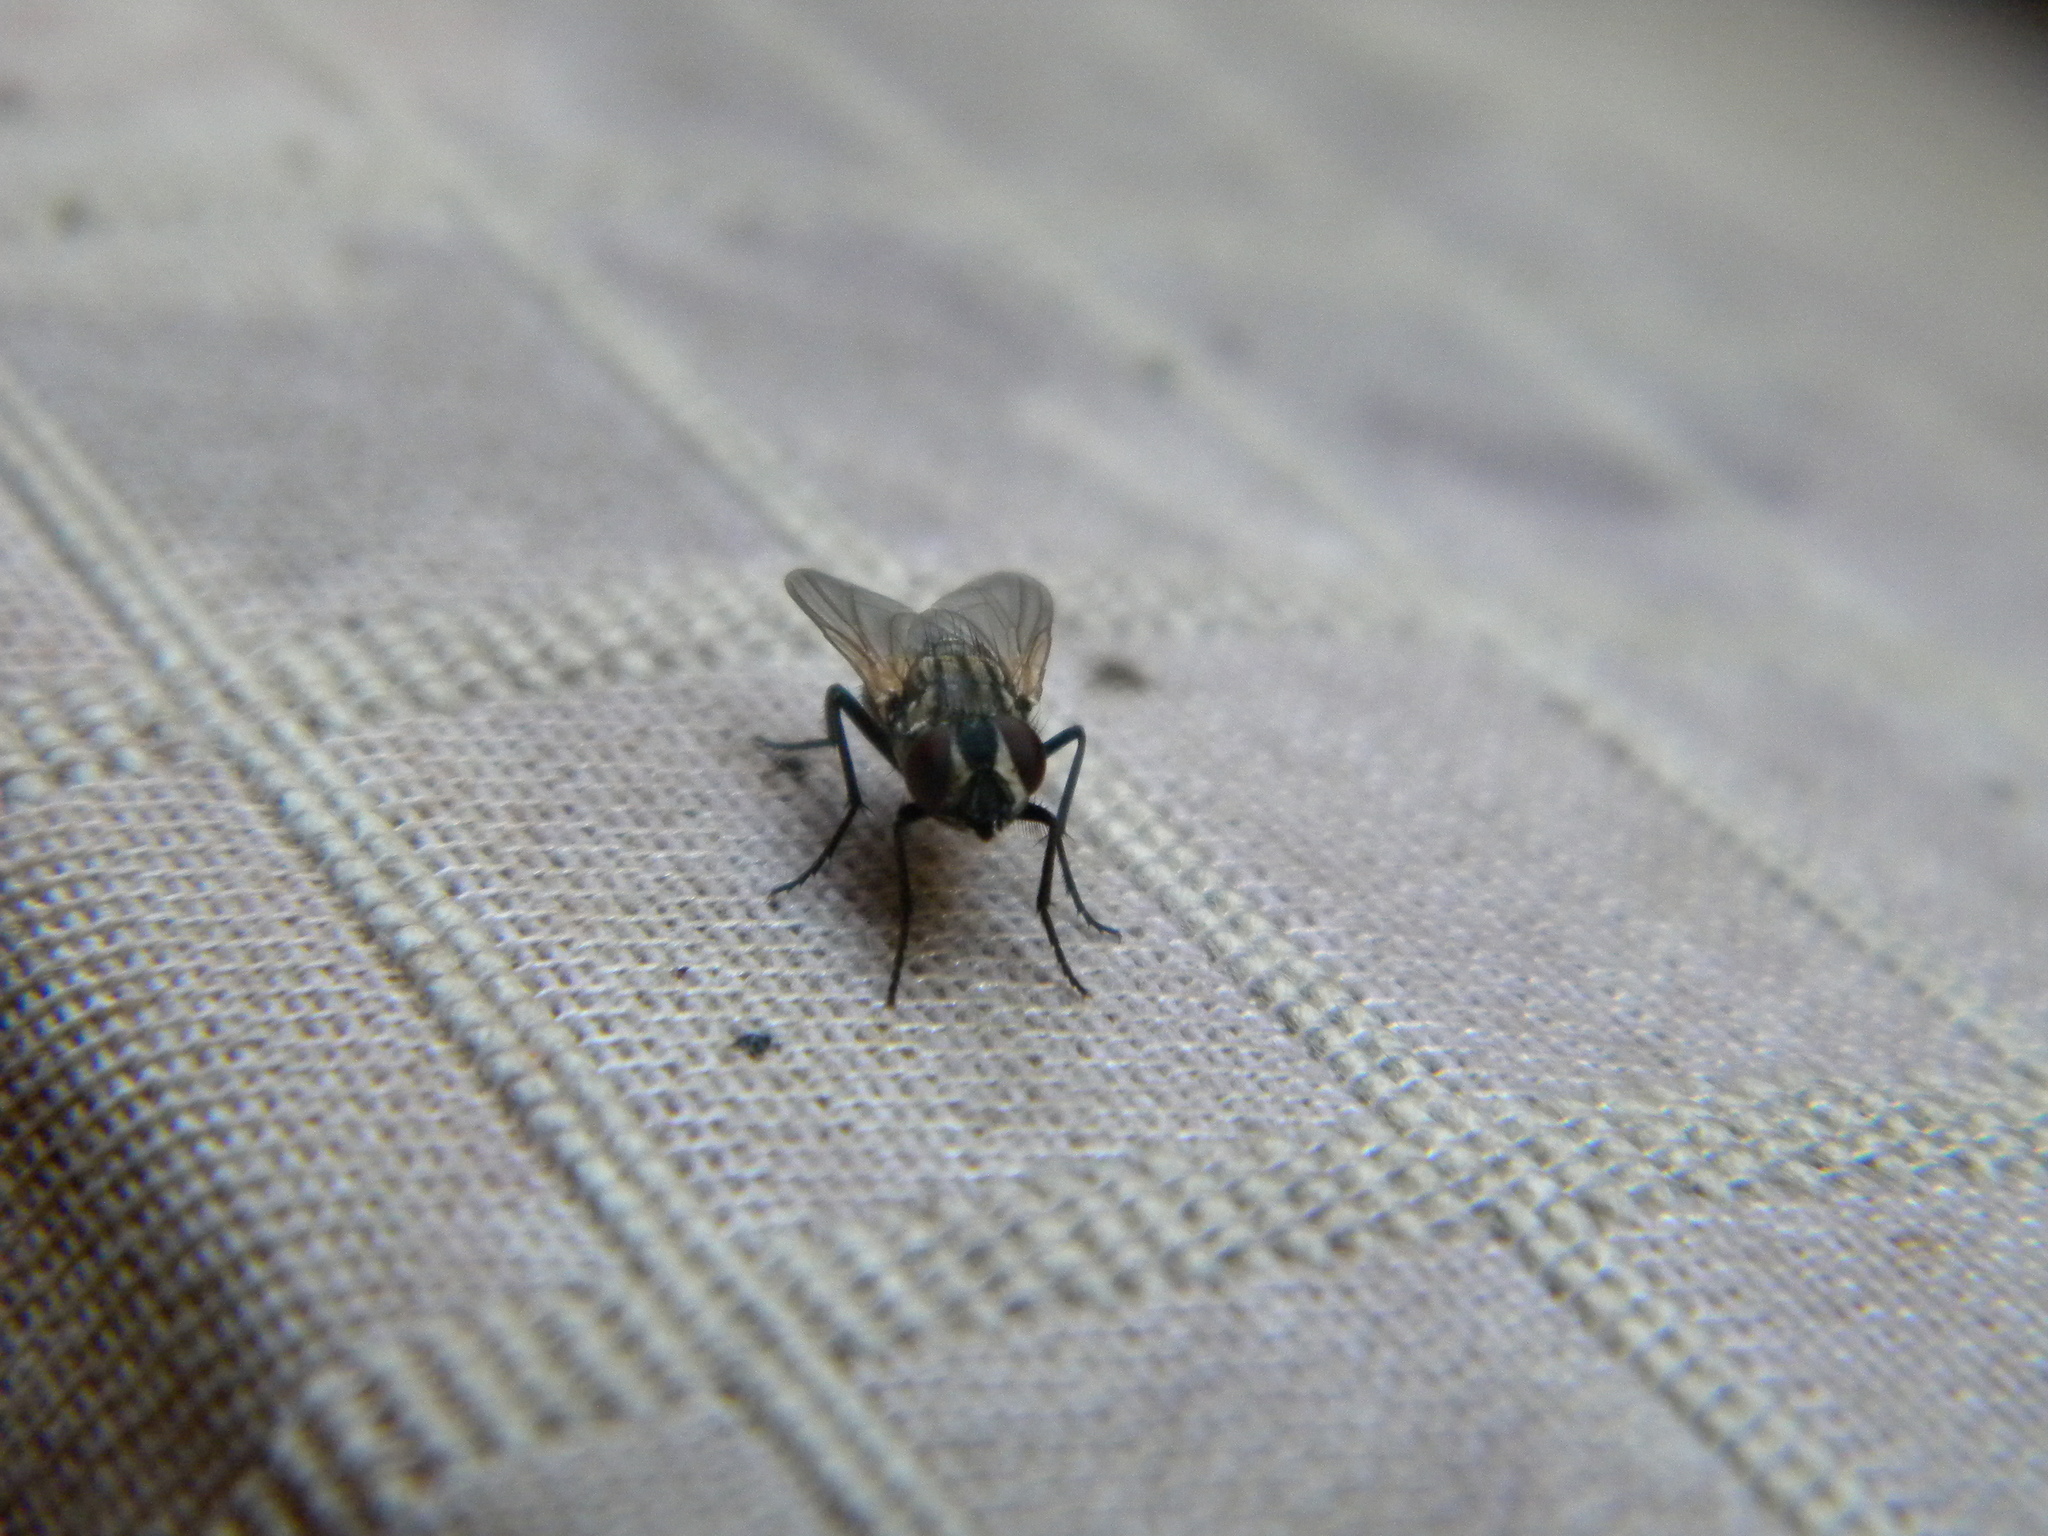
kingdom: Animalia
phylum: Arthropoda
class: Insecta
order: Diptera
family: Muscidae
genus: Musca
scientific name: Musca domestica
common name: House fly
